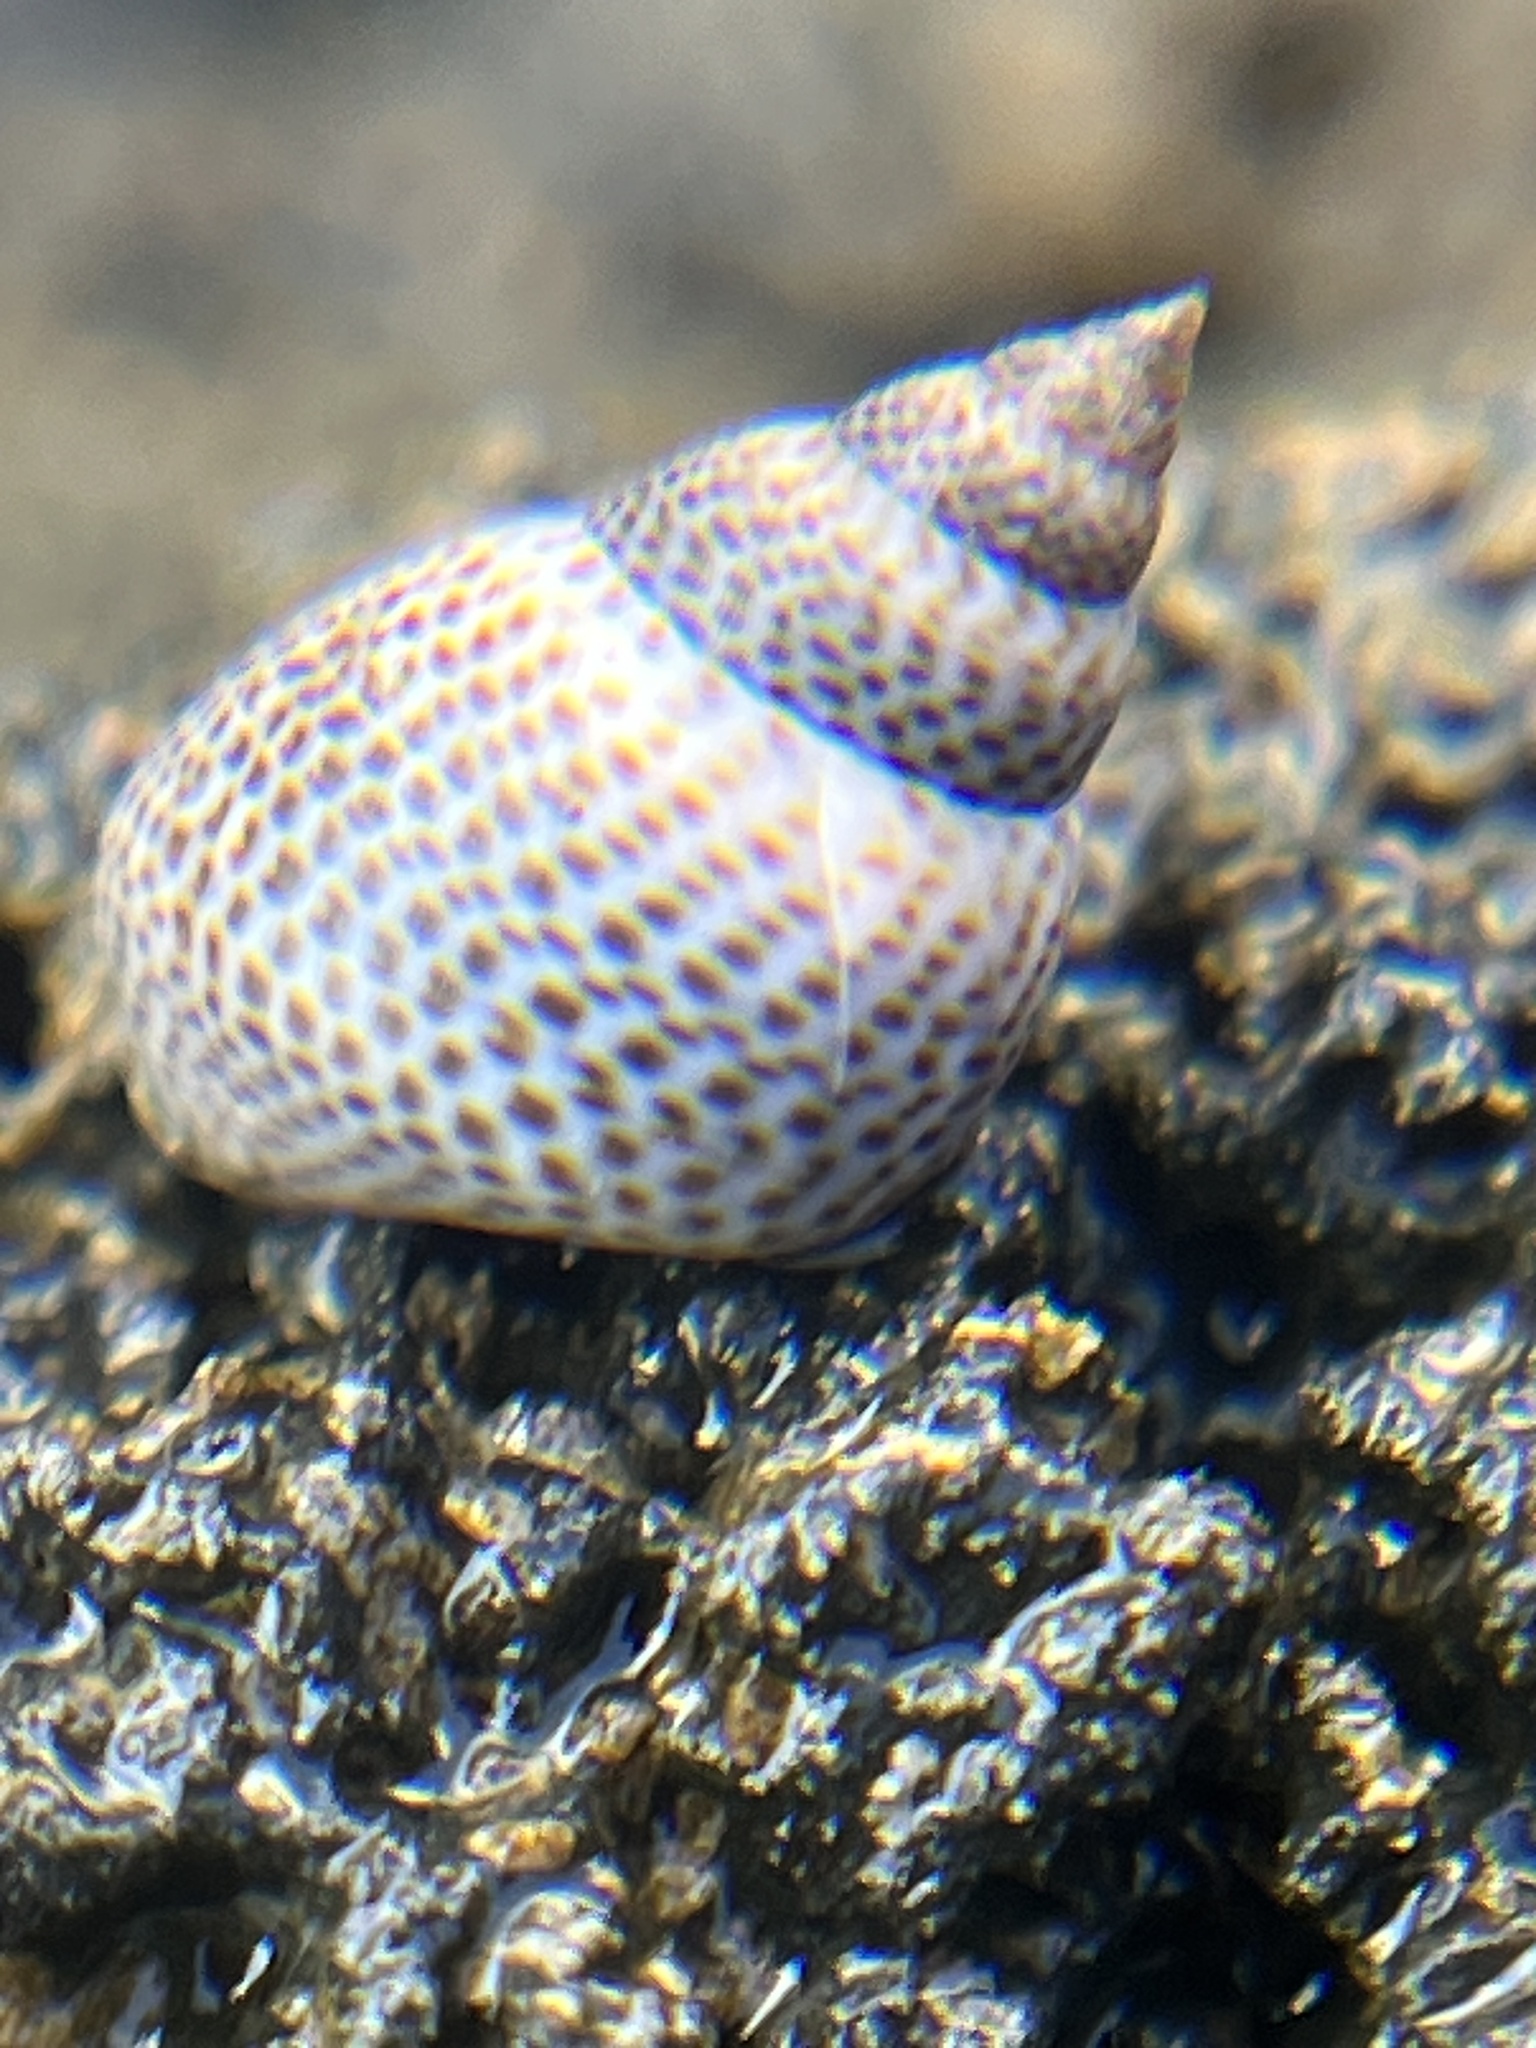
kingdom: Animalia
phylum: Mollusca
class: Gastropoda
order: Littorinimorpha
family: Littorinidae
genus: Littoraria
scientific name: Littoraria pintado
